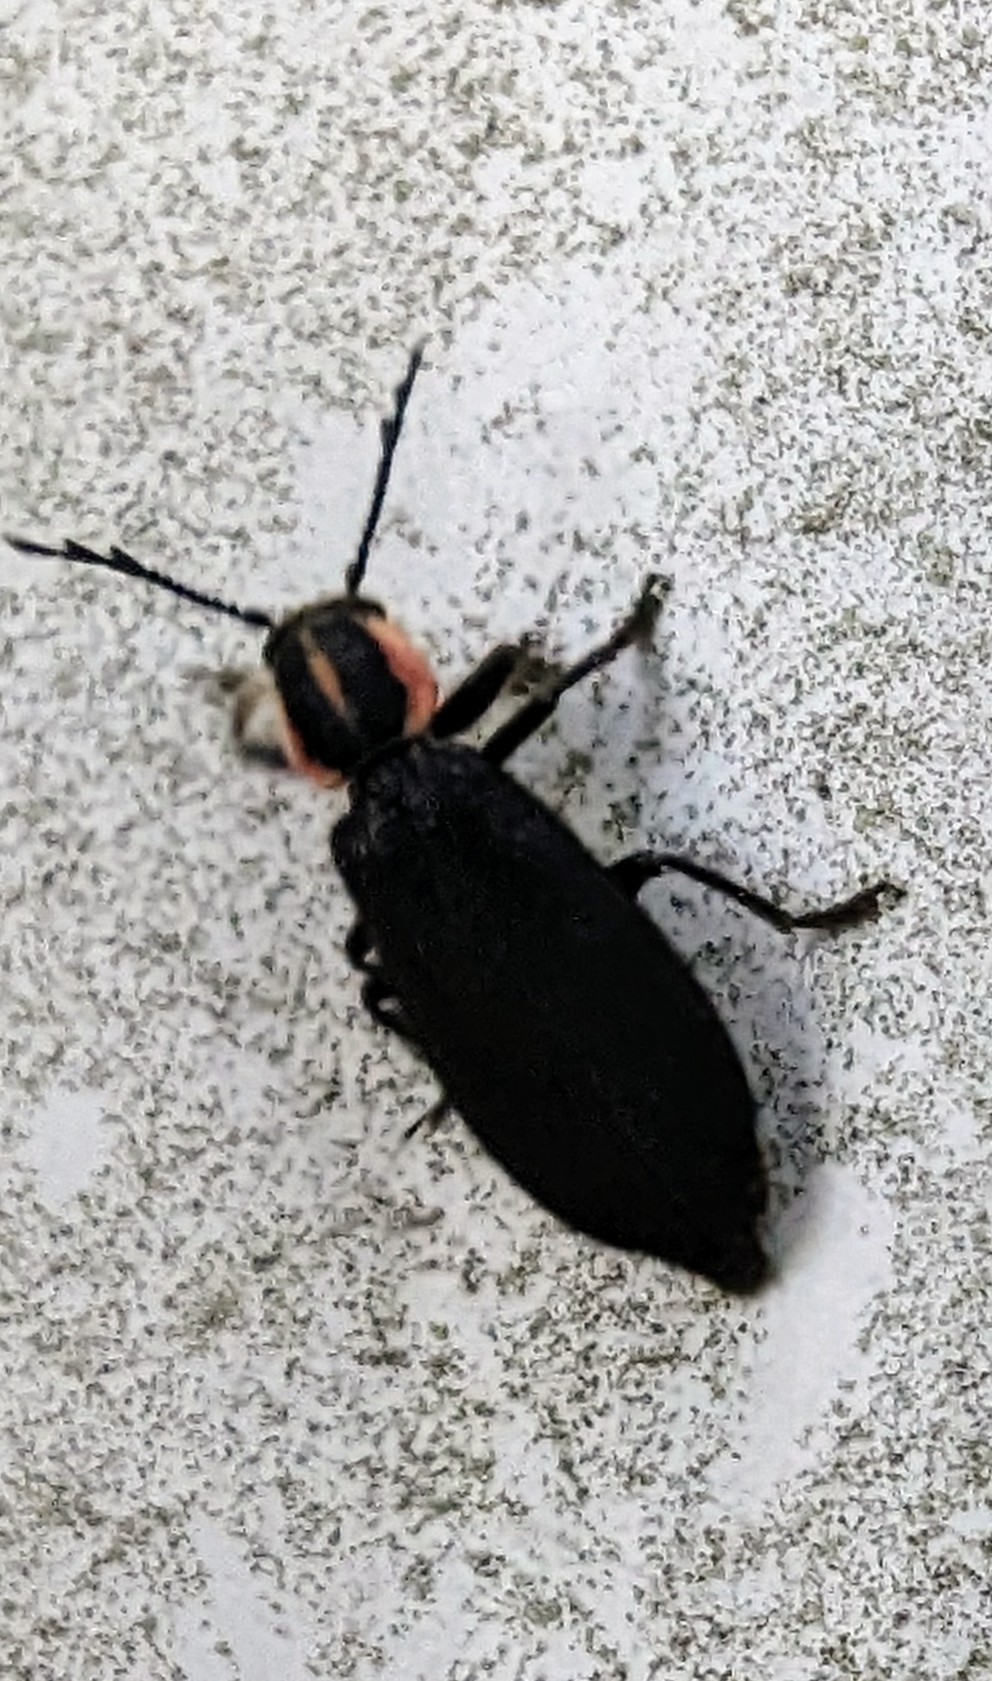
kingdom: Animalia
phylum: Arthropoda
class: Insecta
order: Coleoptera
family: Cleridae
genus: Chariessa
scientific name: Chariessa pilosa
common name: Pilose checkered beetle
